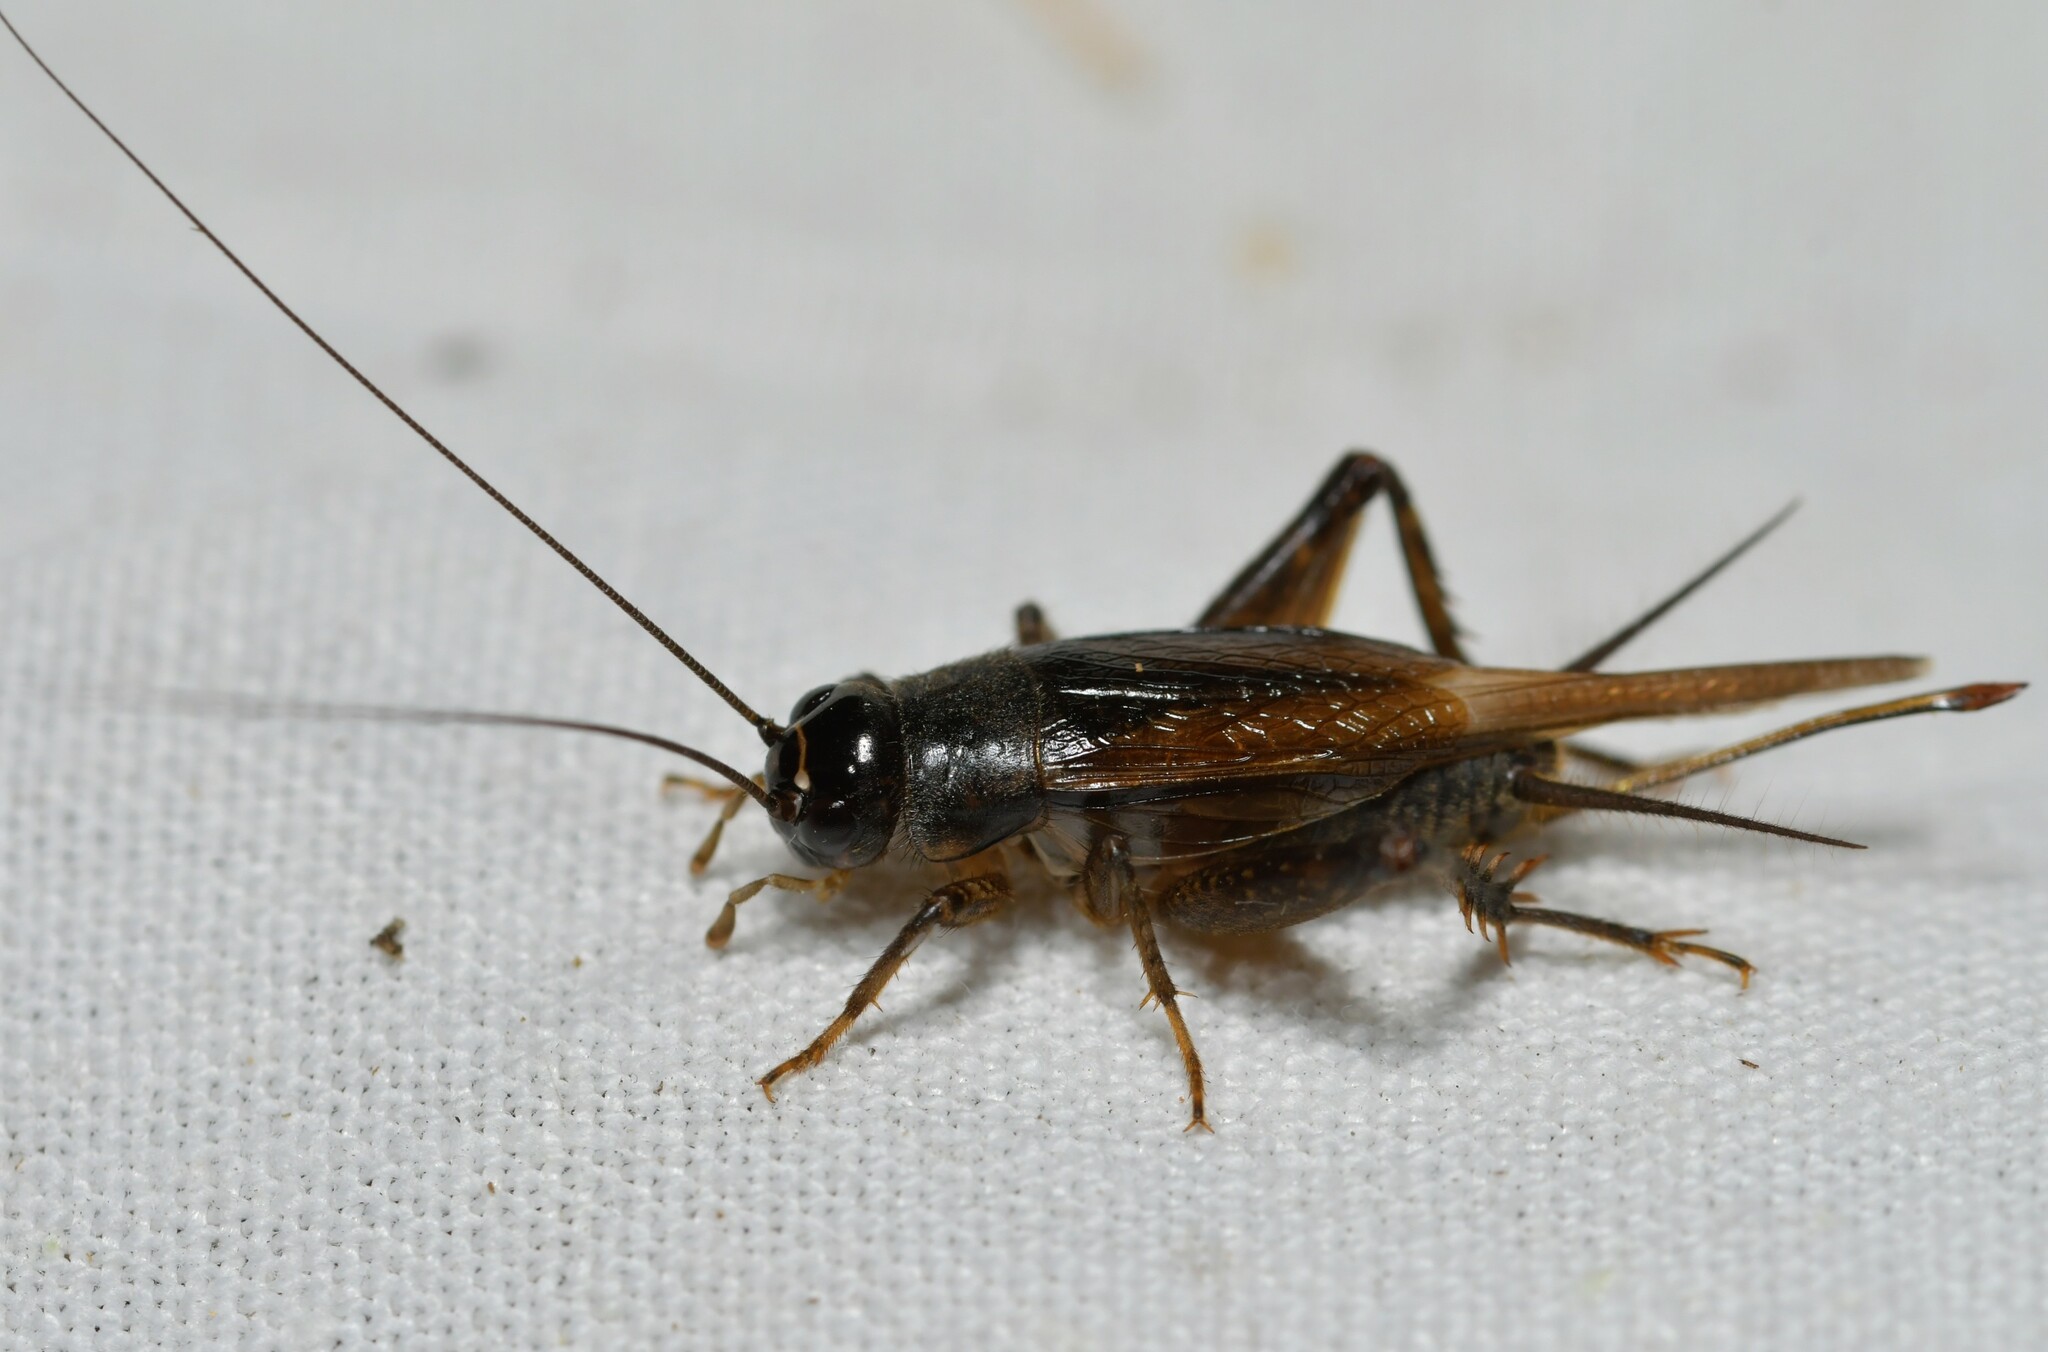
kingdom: Animalia
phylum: Arthropoda
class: Insecta
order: Orthoptera
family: Gryllidae
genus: Svercus
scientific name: Svercus palmetorum
